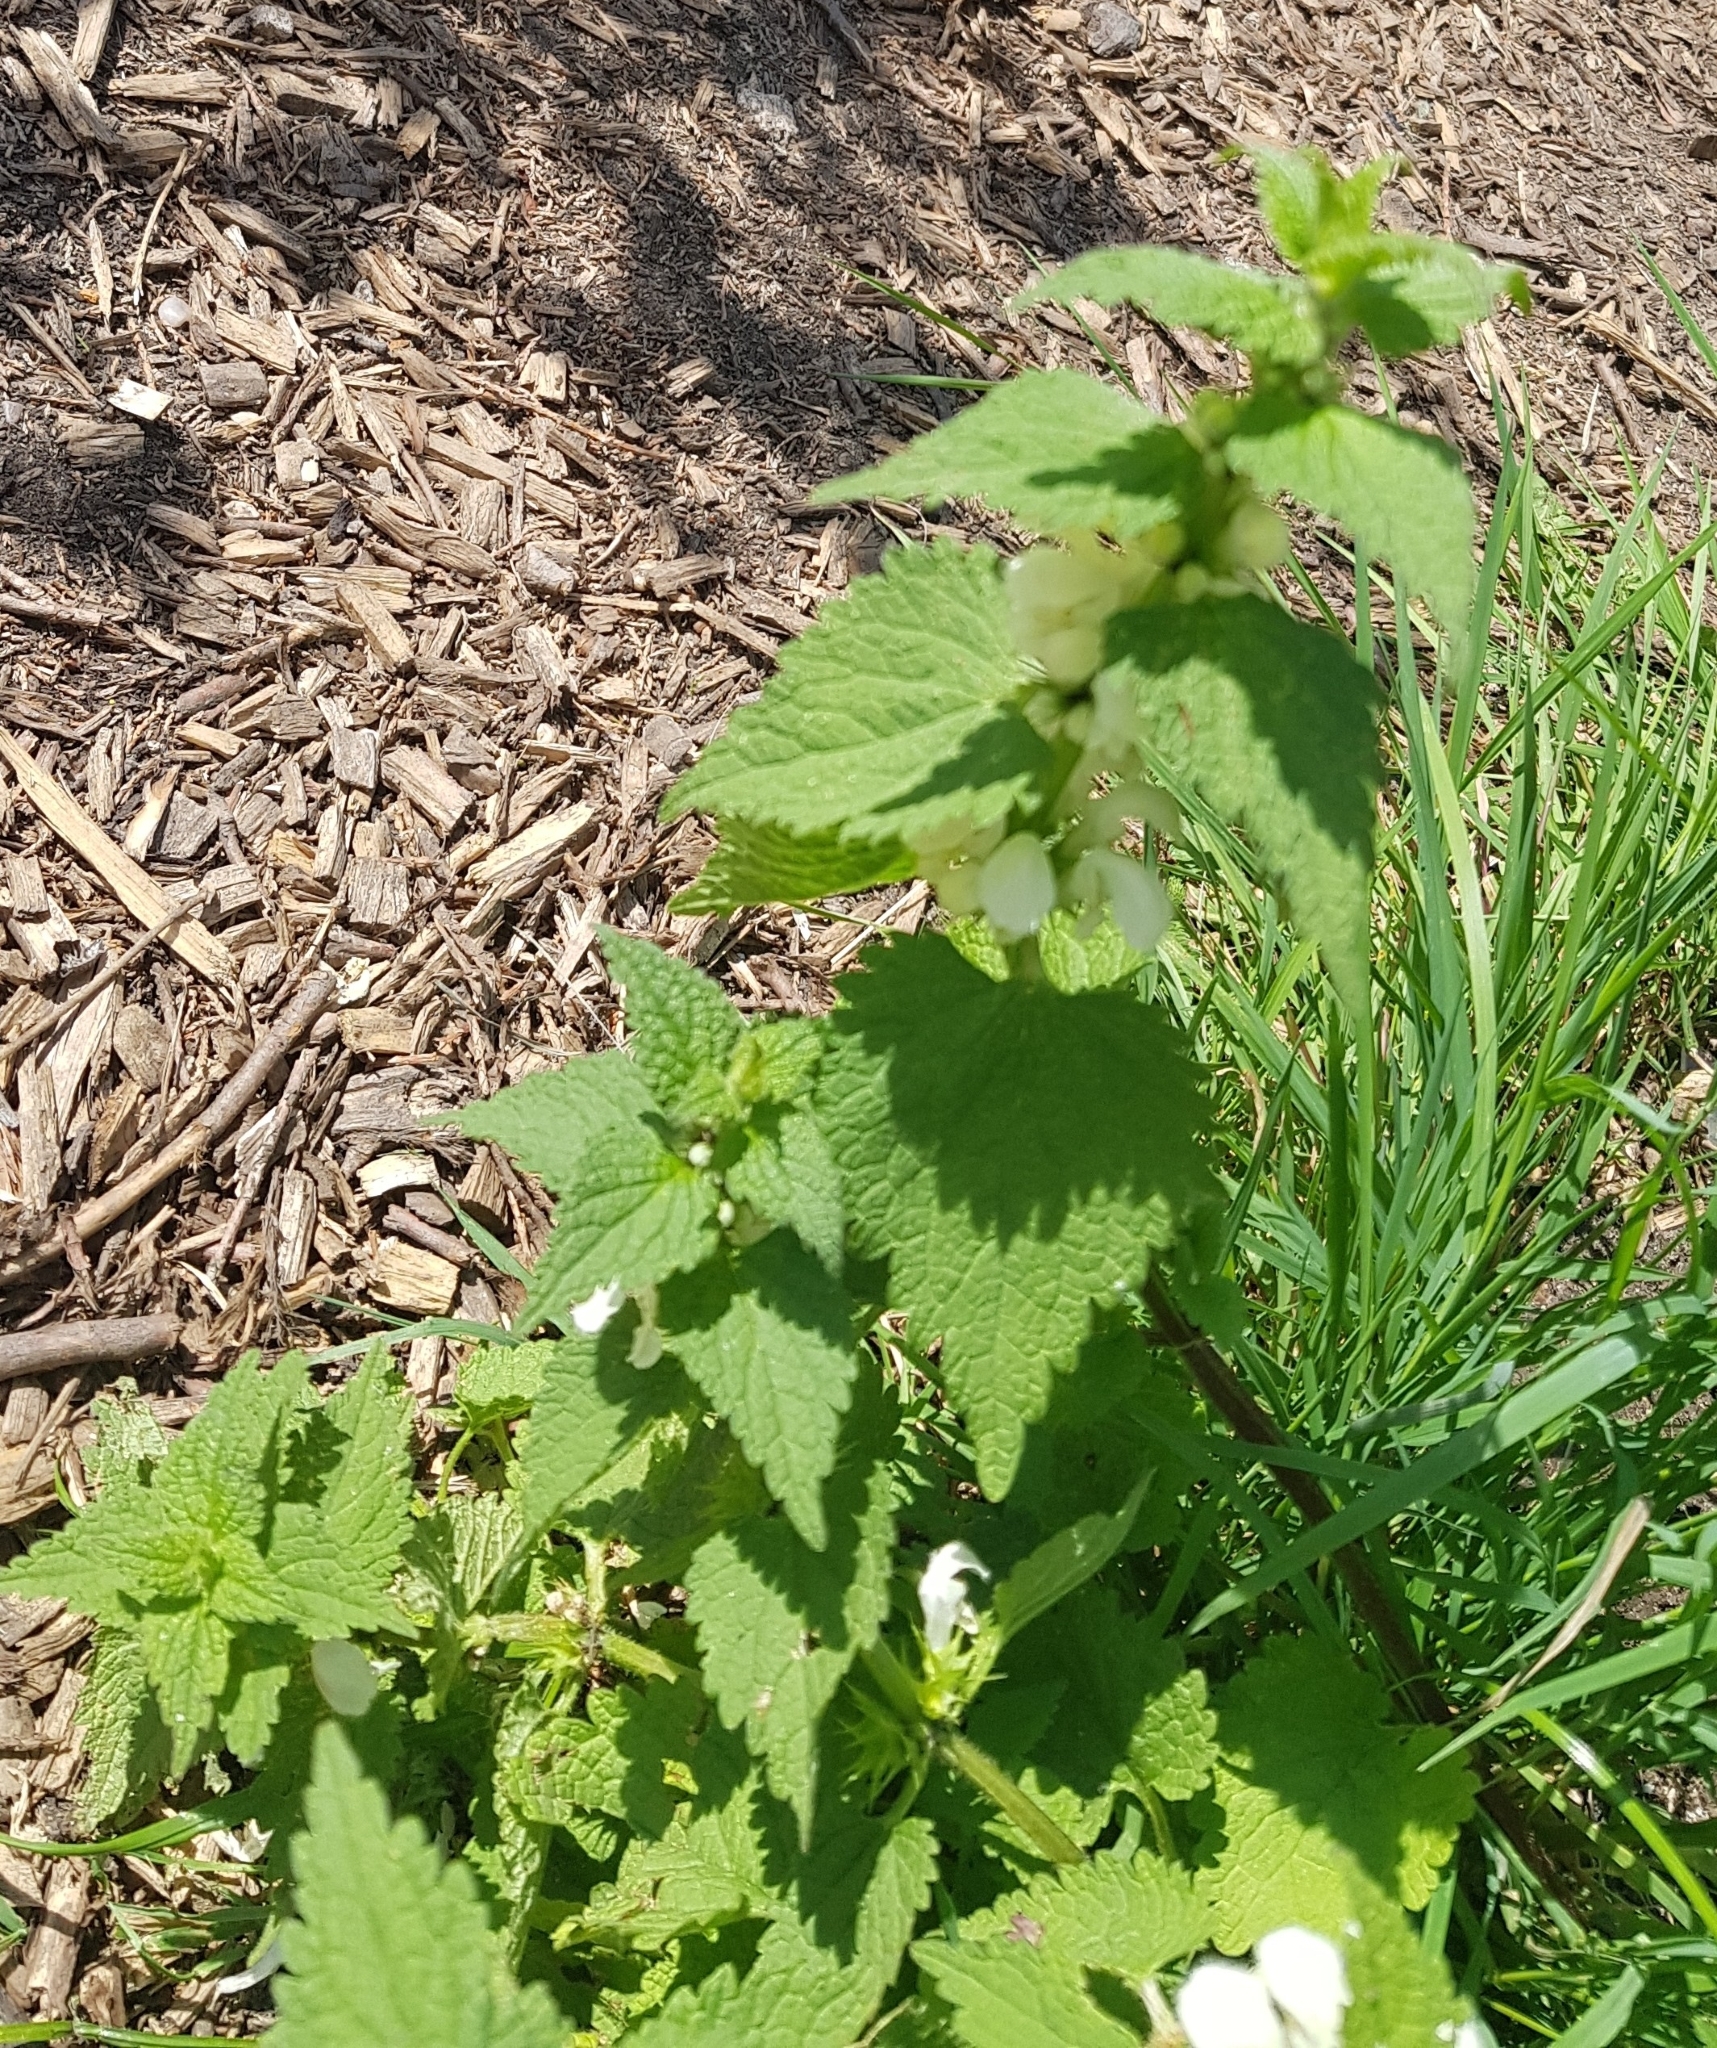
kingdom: Plantae
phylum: Tracheophyta
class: Magnoliopsida
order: Lamiales
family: Lamiaceae
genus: Lamium
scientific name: Lamium album
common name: White dead-nettle
